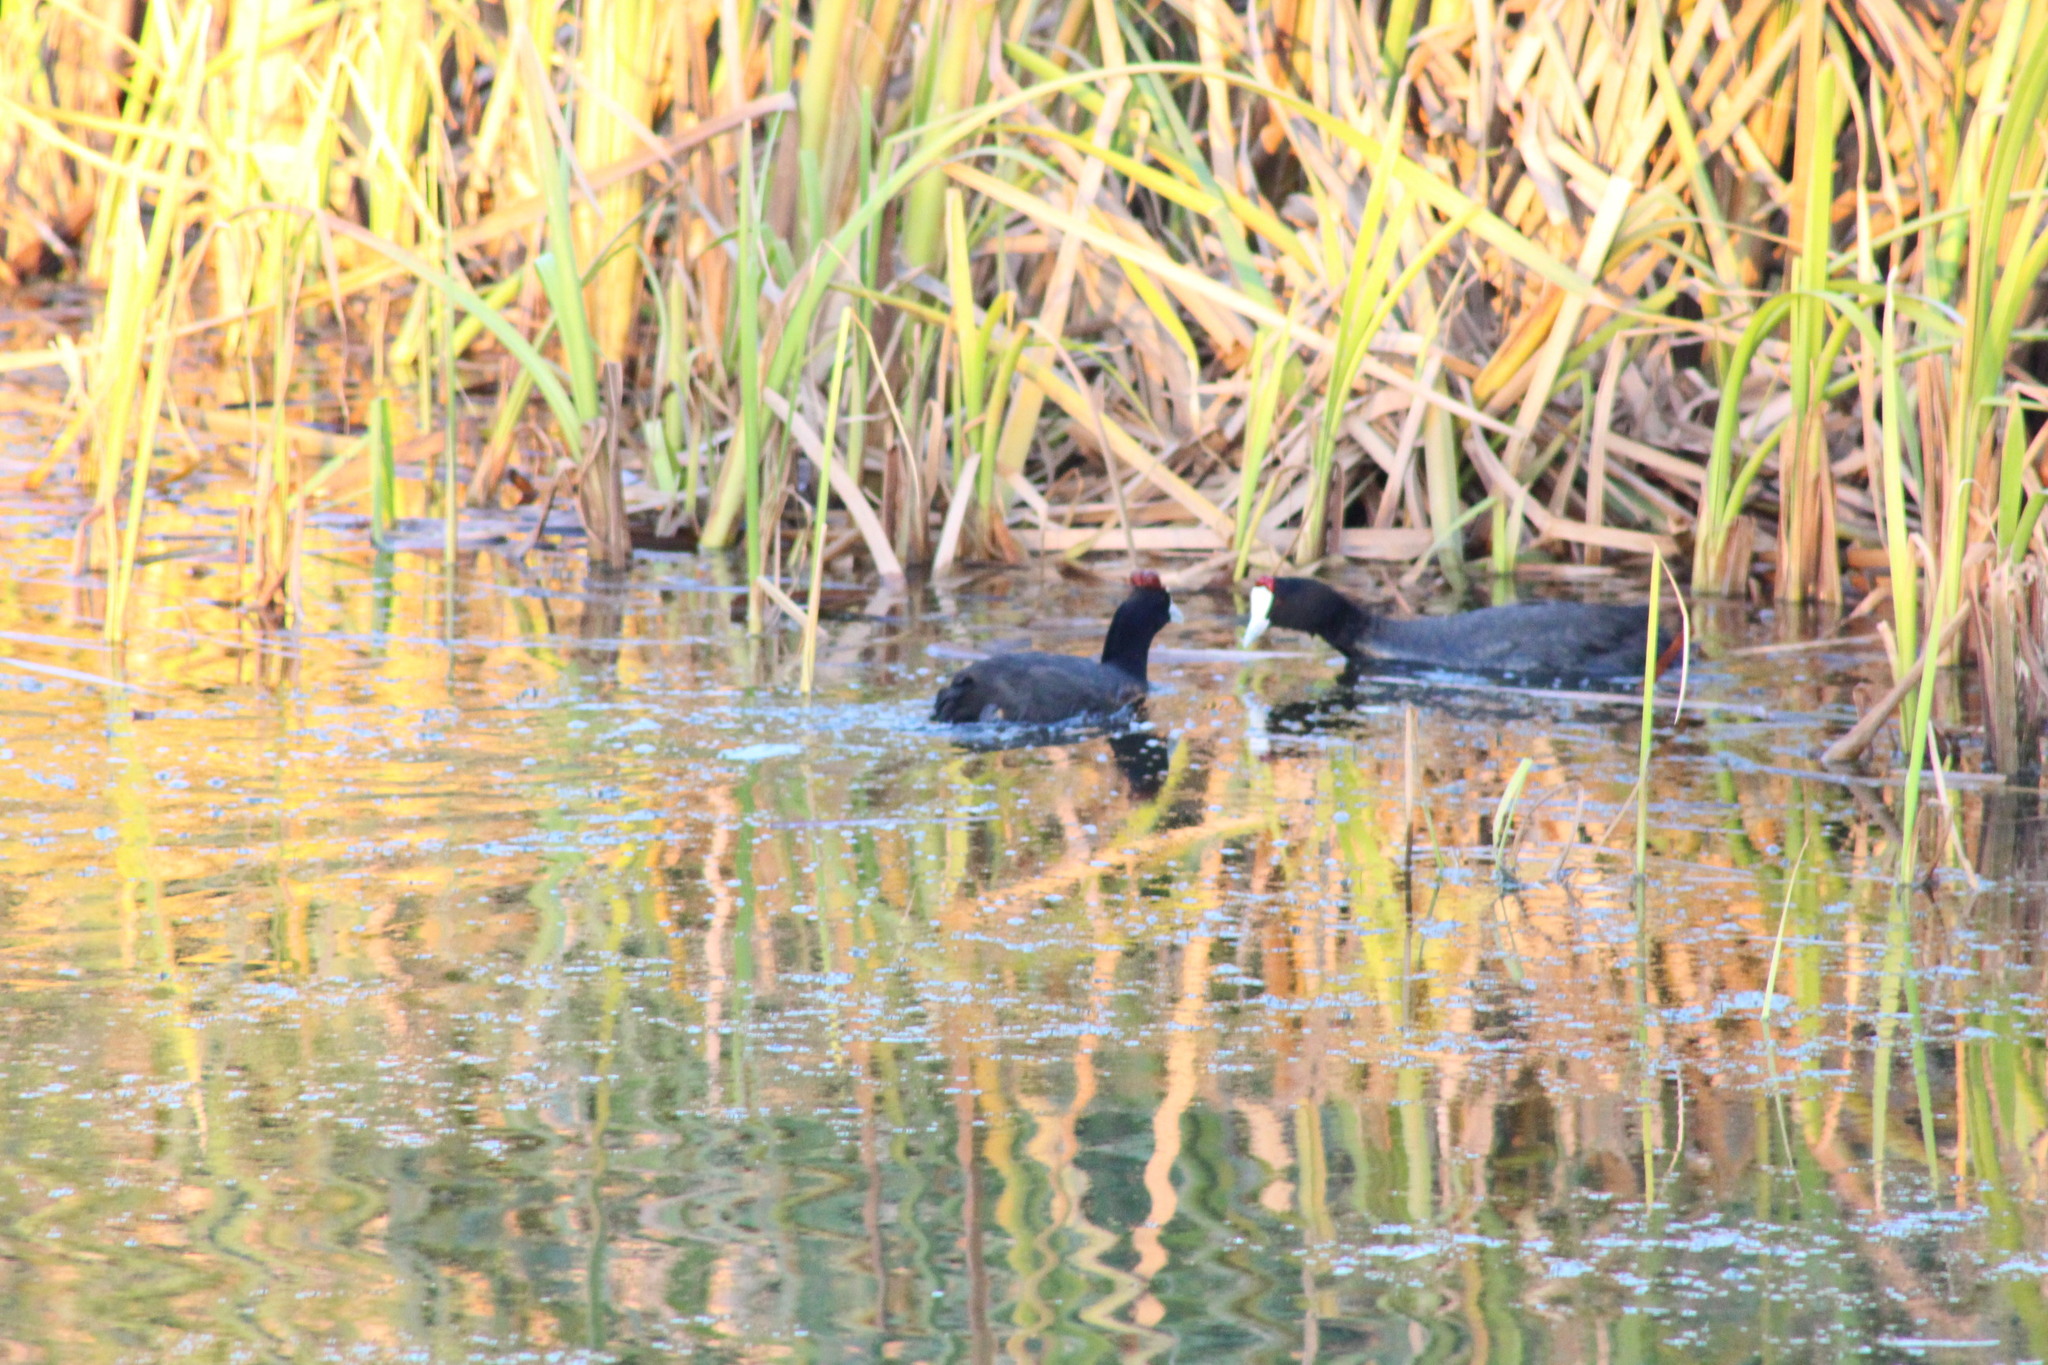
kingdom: Animalia
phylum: Chordata
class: Aves
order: Gruiformes
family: Rallidae
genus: Fulica
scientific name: Fulica cristata
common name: Red-knobbed coot
